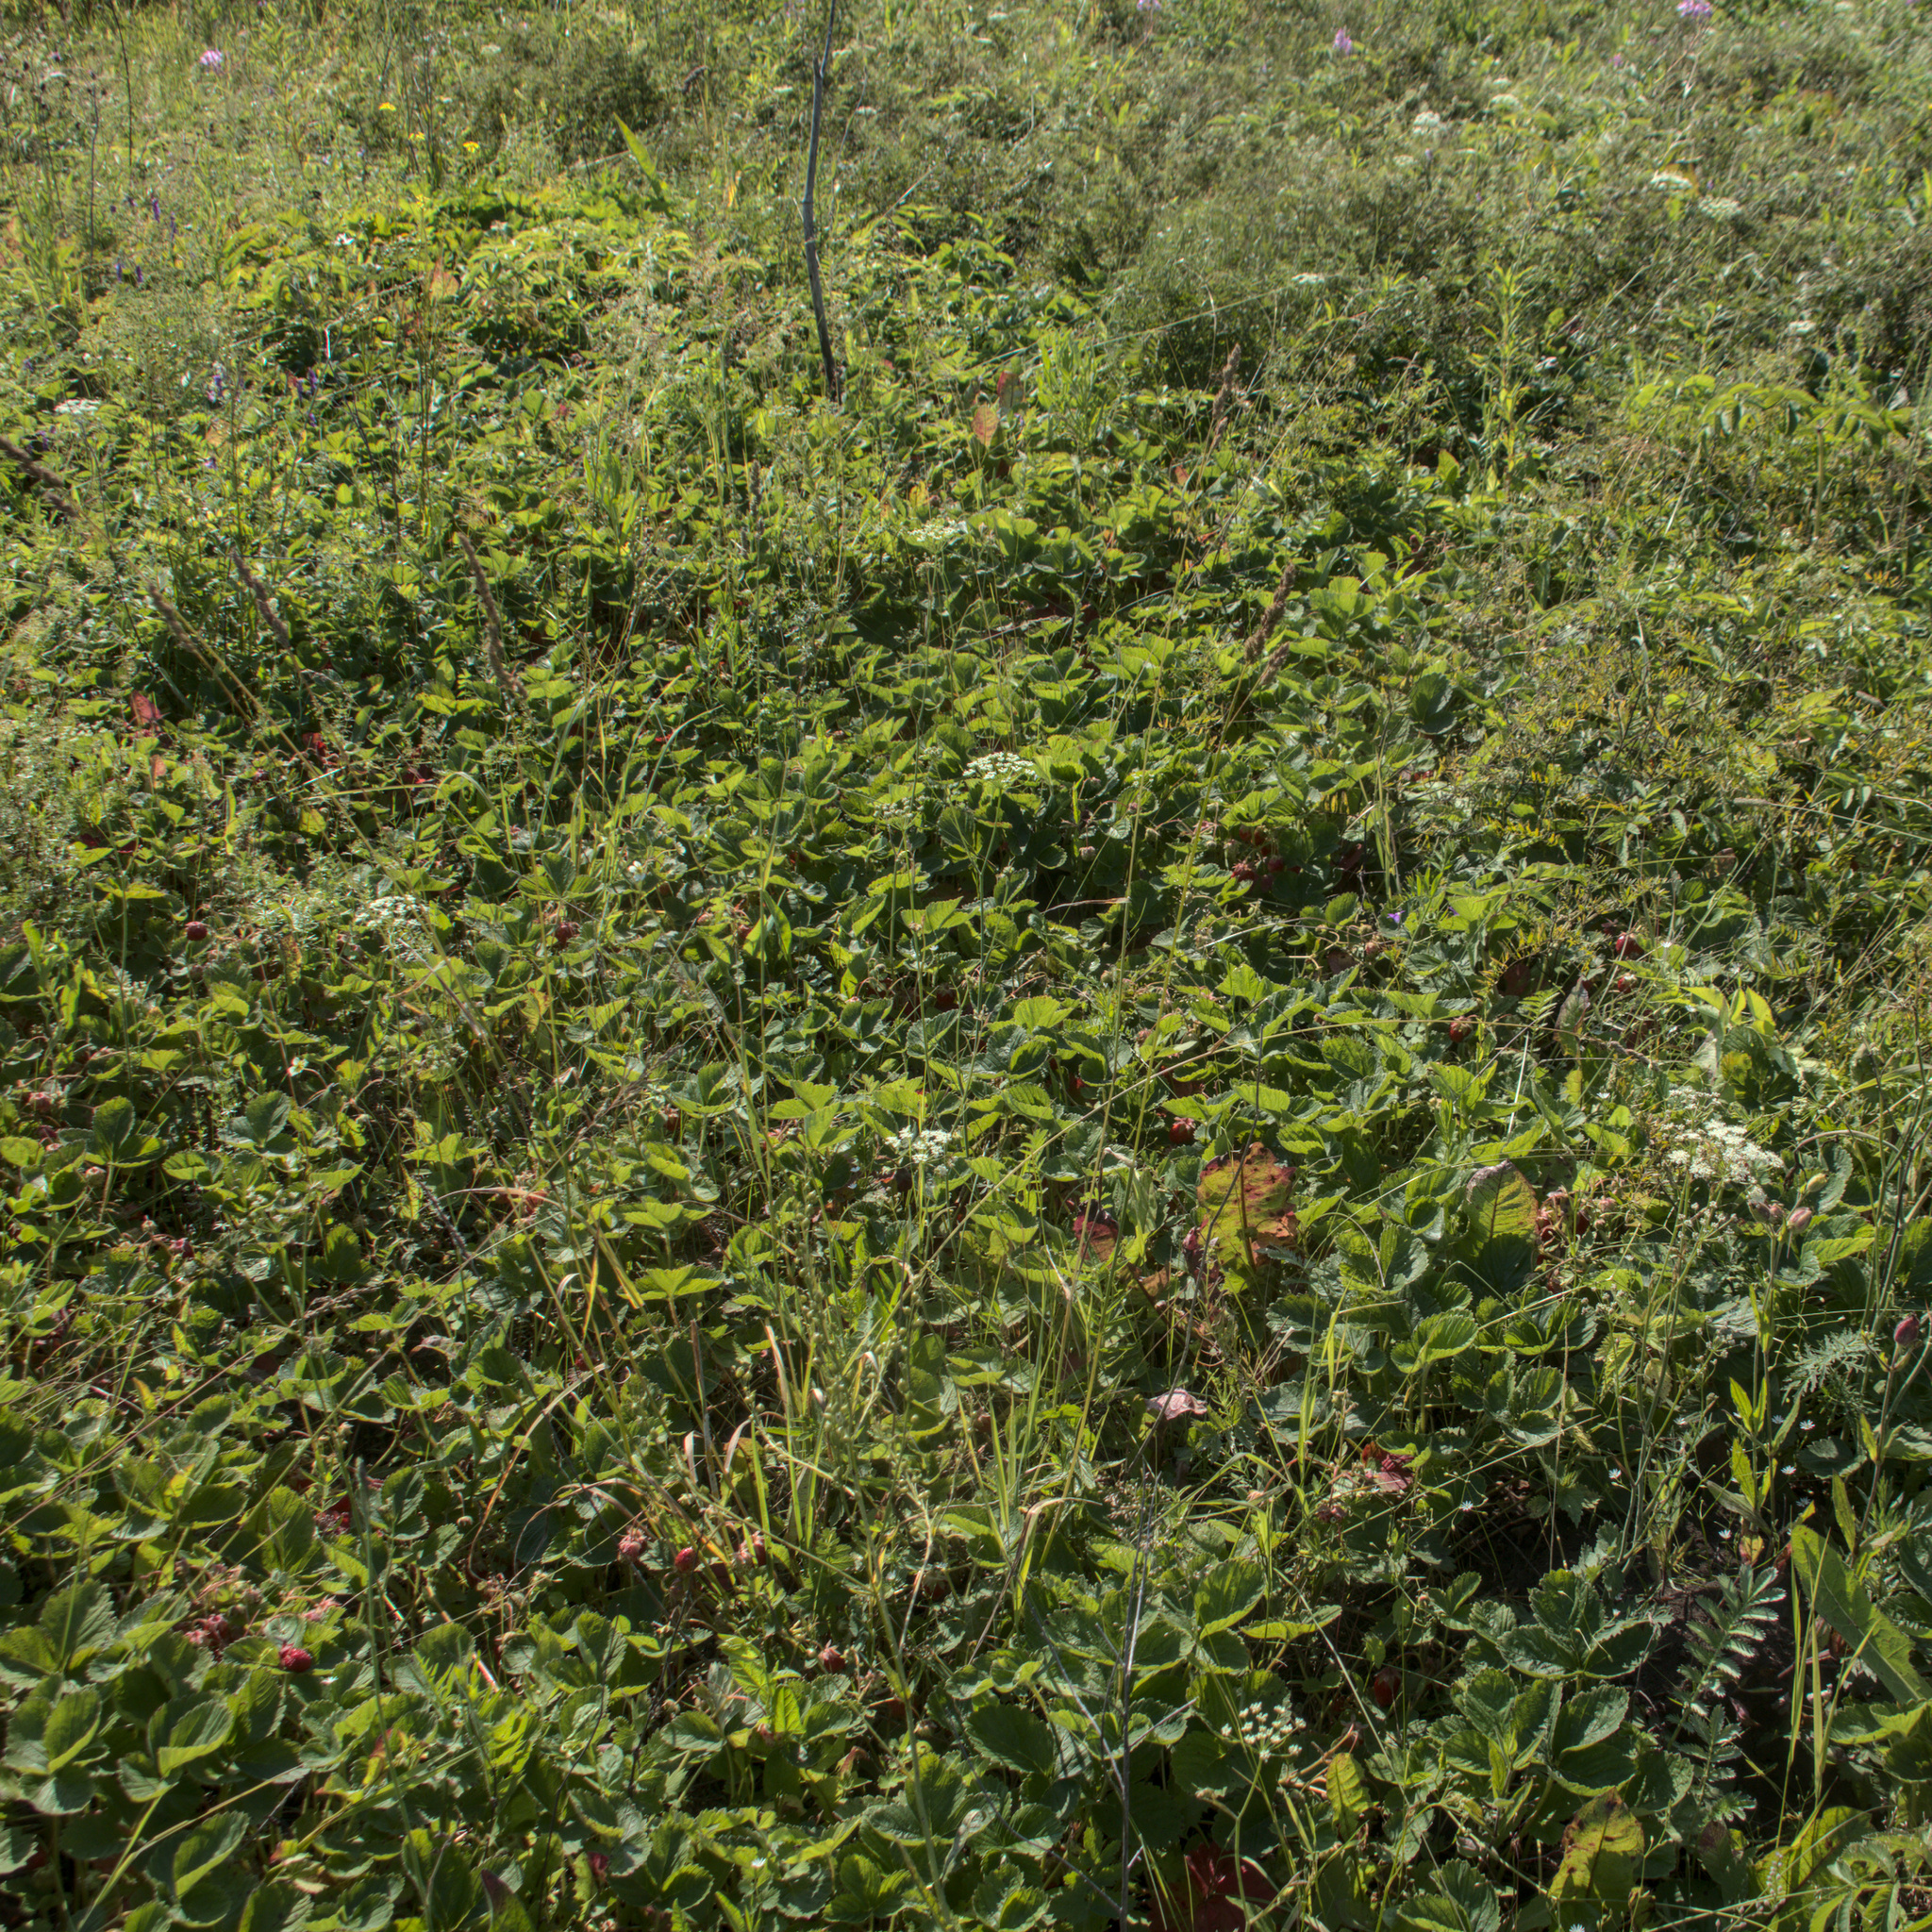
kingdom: Plantae
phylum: Tracheophyta
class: Magnoliopsida
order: Rosales
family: Rosaceae
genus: Fragaria
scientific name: Fragaria moschata
